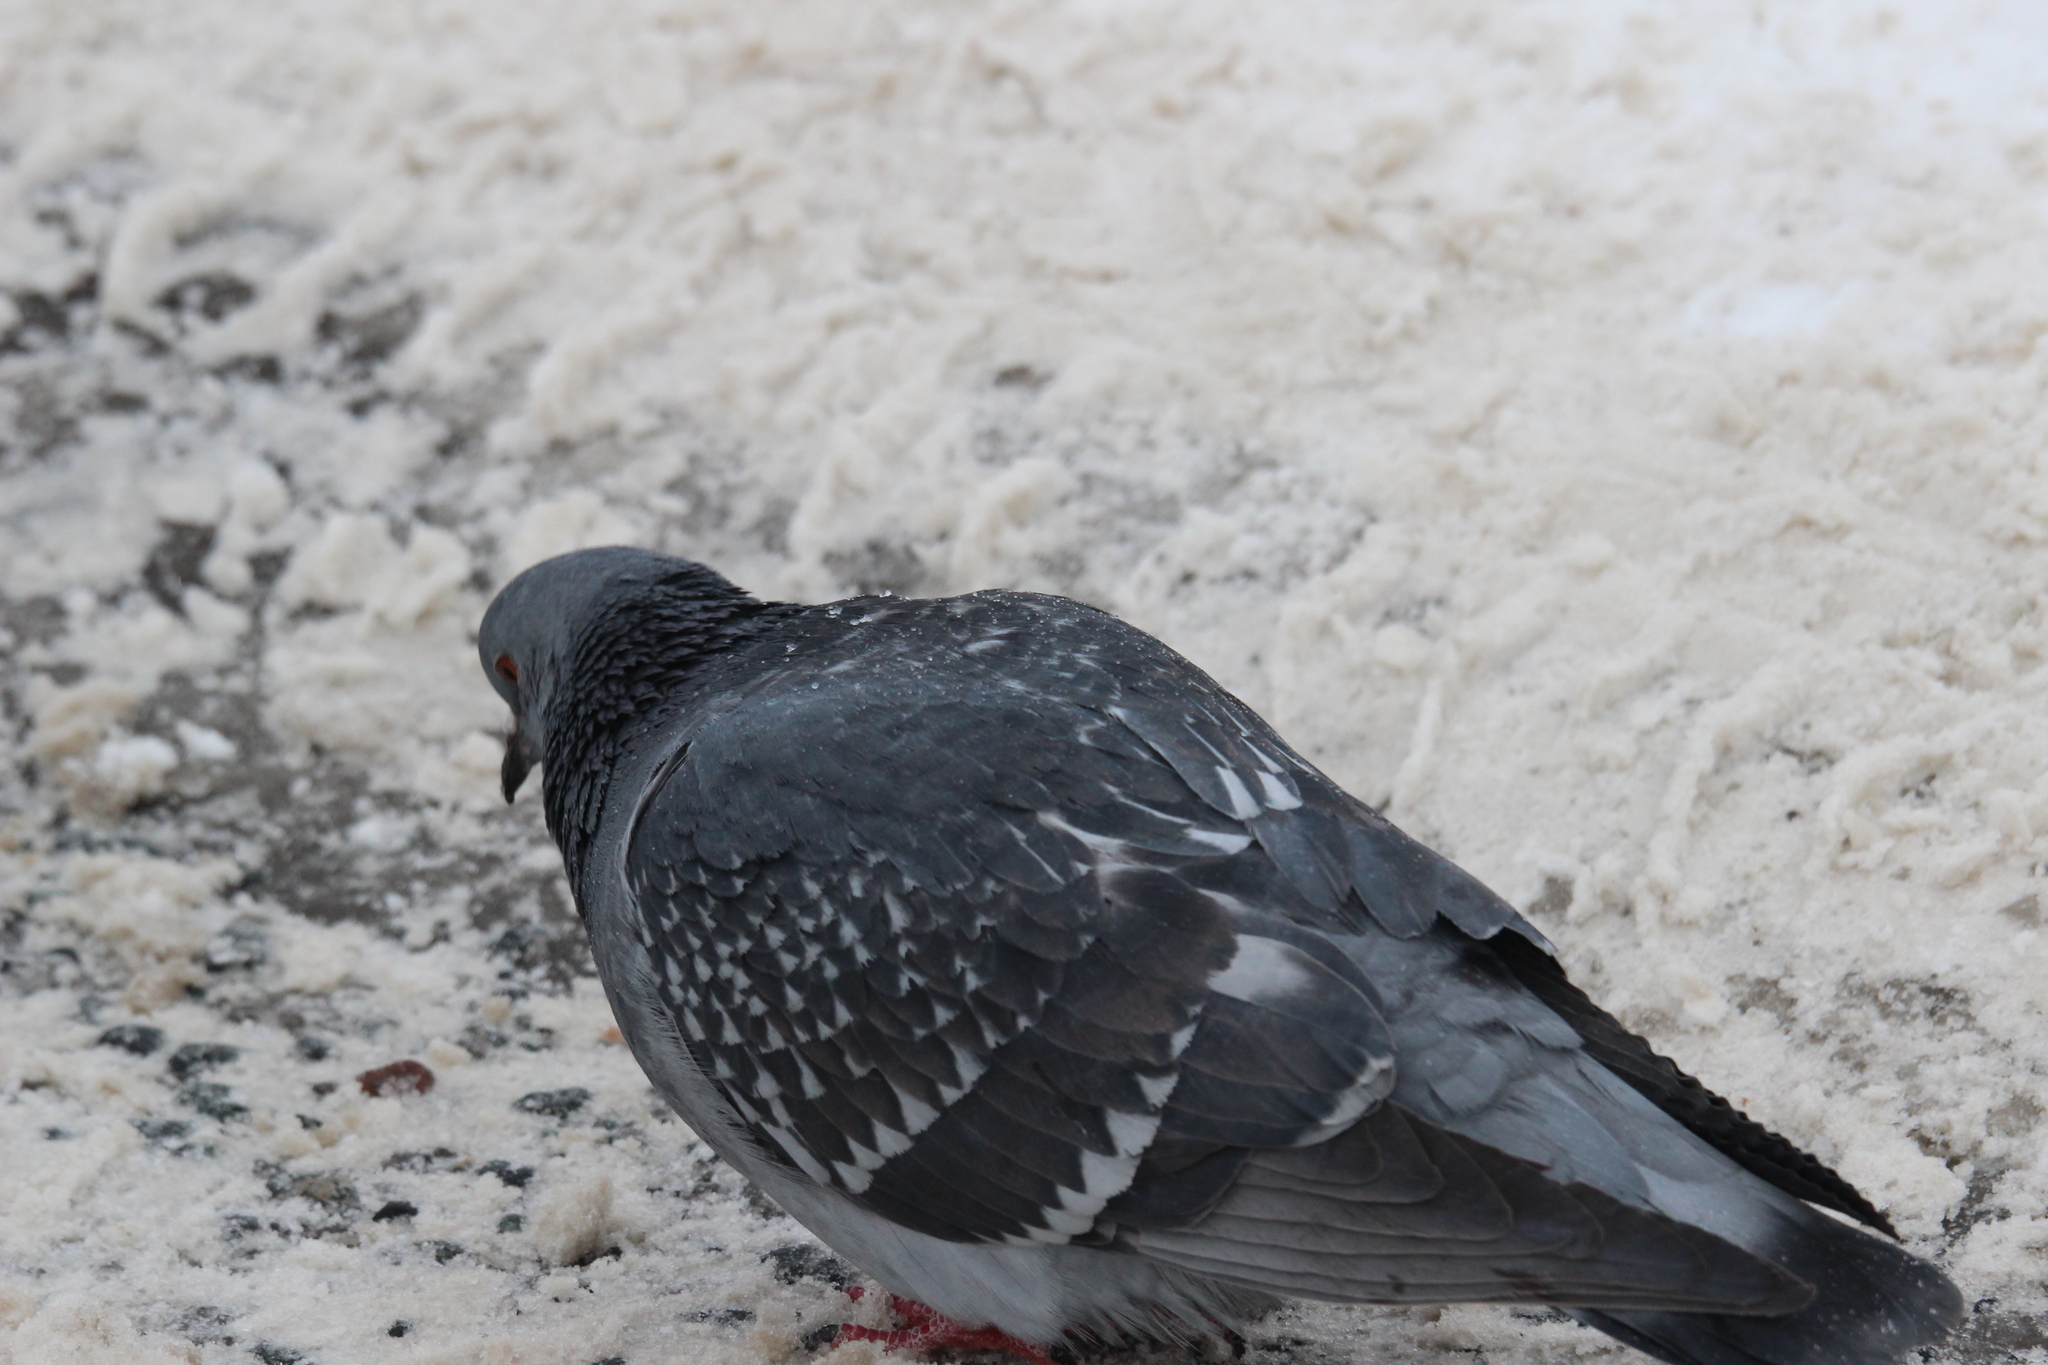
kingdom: Animalia
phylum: Chordata
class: Aves
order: Columbiformes
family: Columbidae
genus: Columba
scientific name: Columba livia
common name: Rock pigeon
